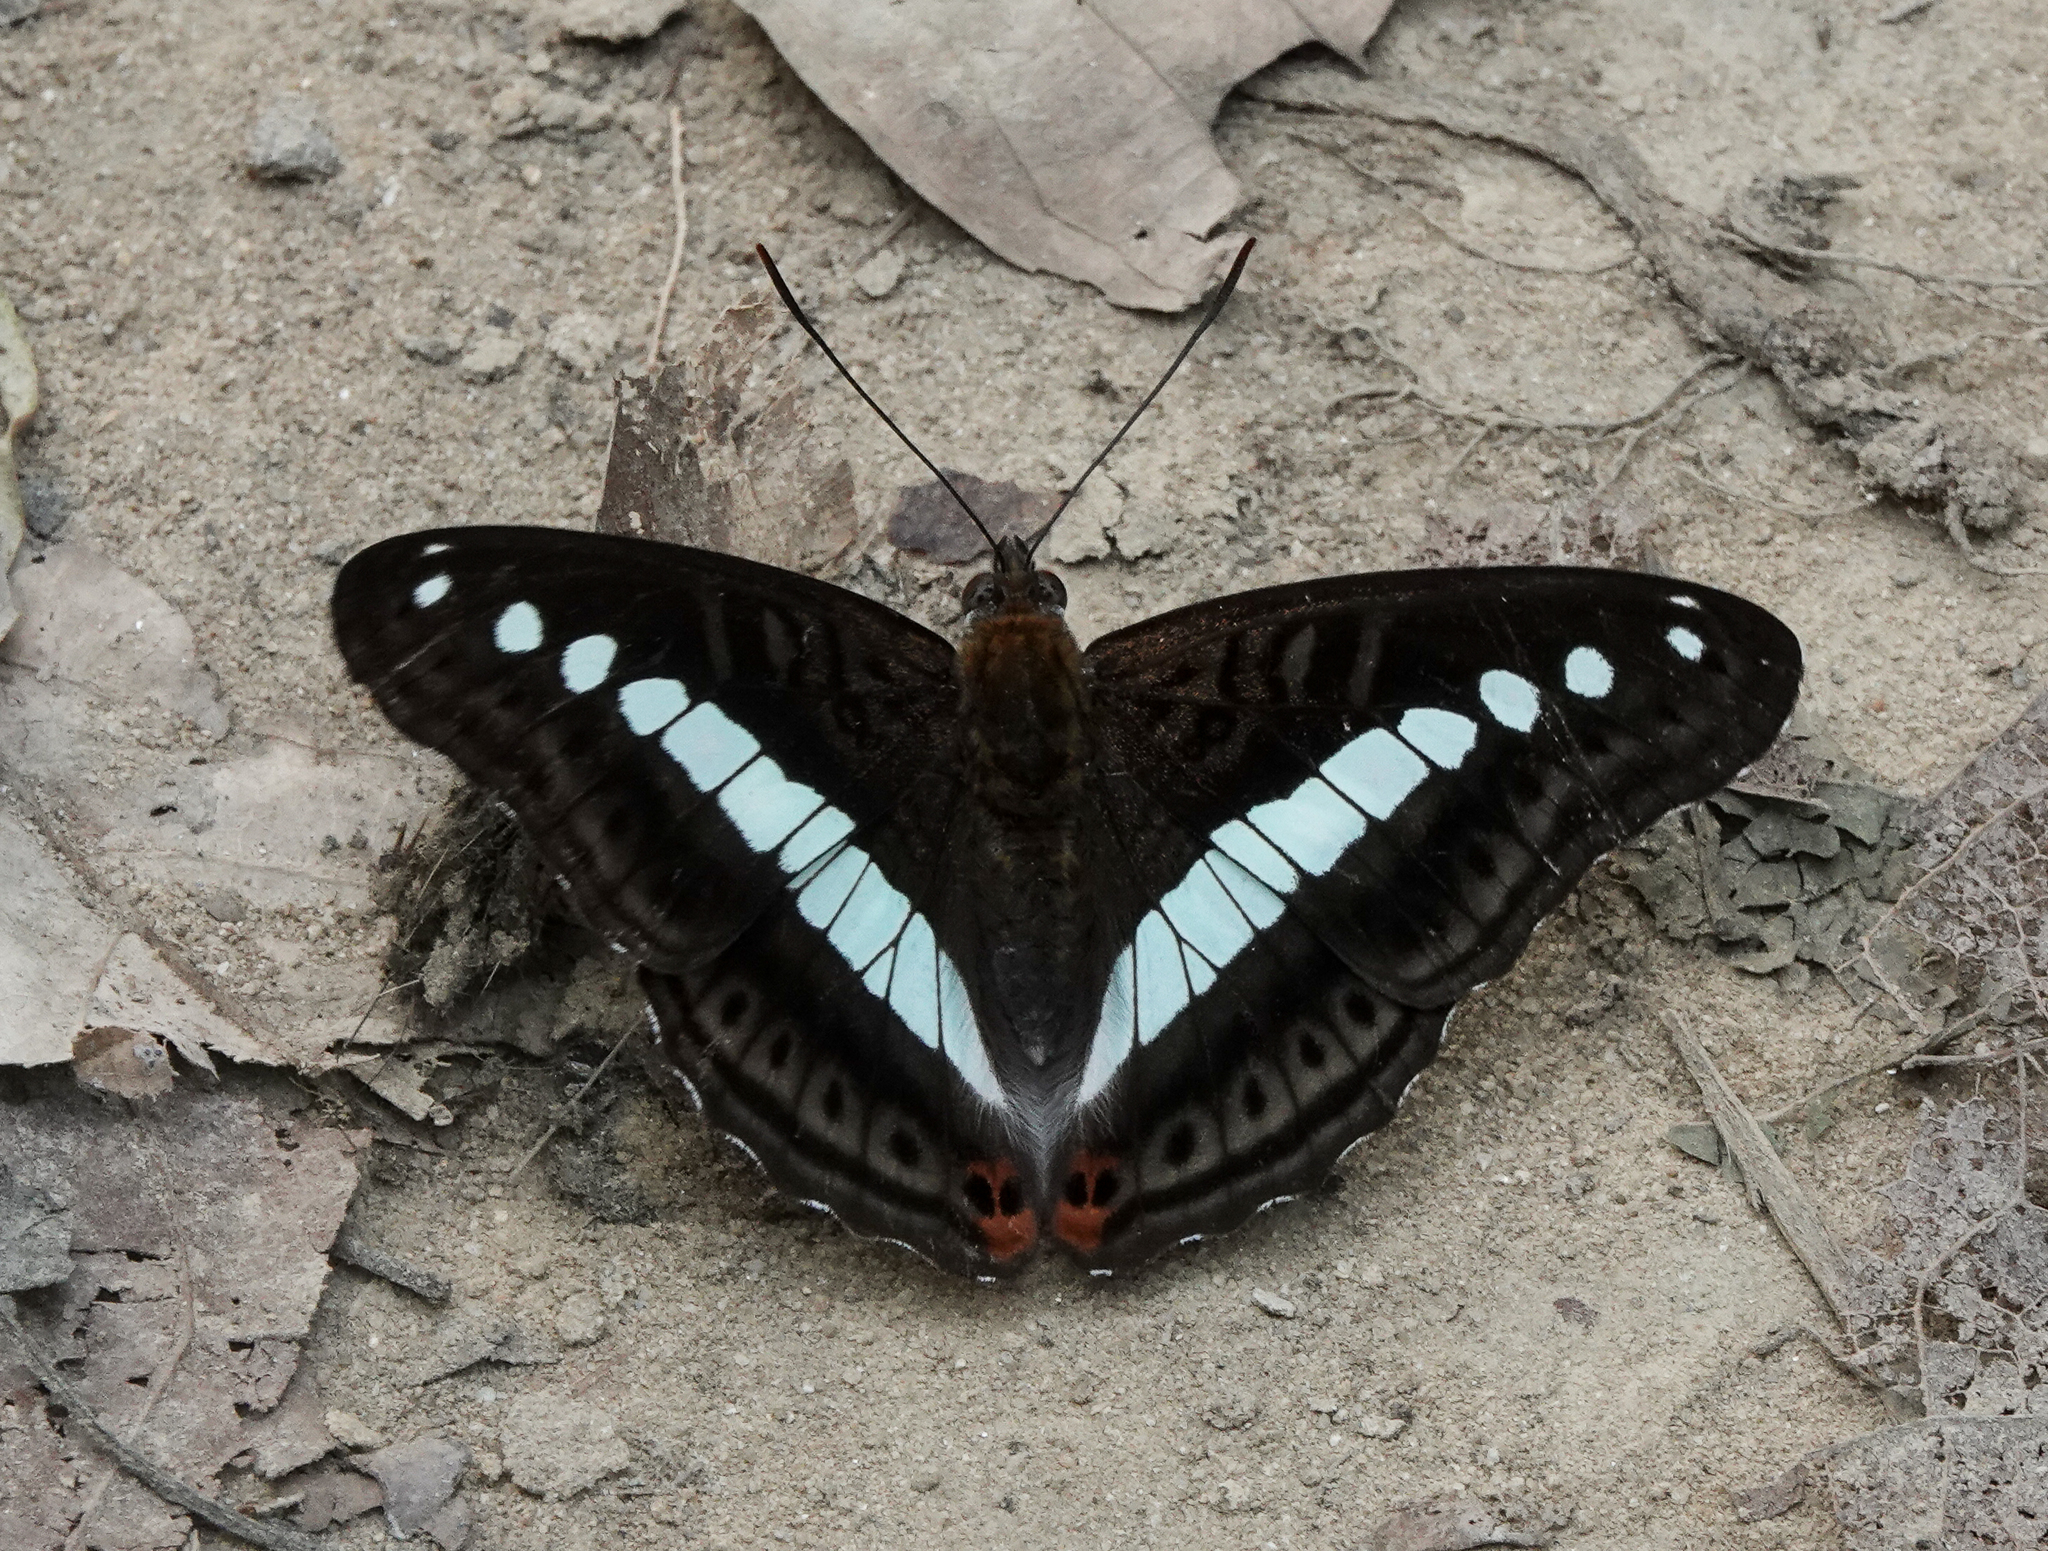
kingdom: Animalia
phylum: Arthropoda
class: Insecta
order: Lepidoptera
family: Nymphalidae
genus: Limenitis
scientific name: Limenitis Sumalia daraxa
